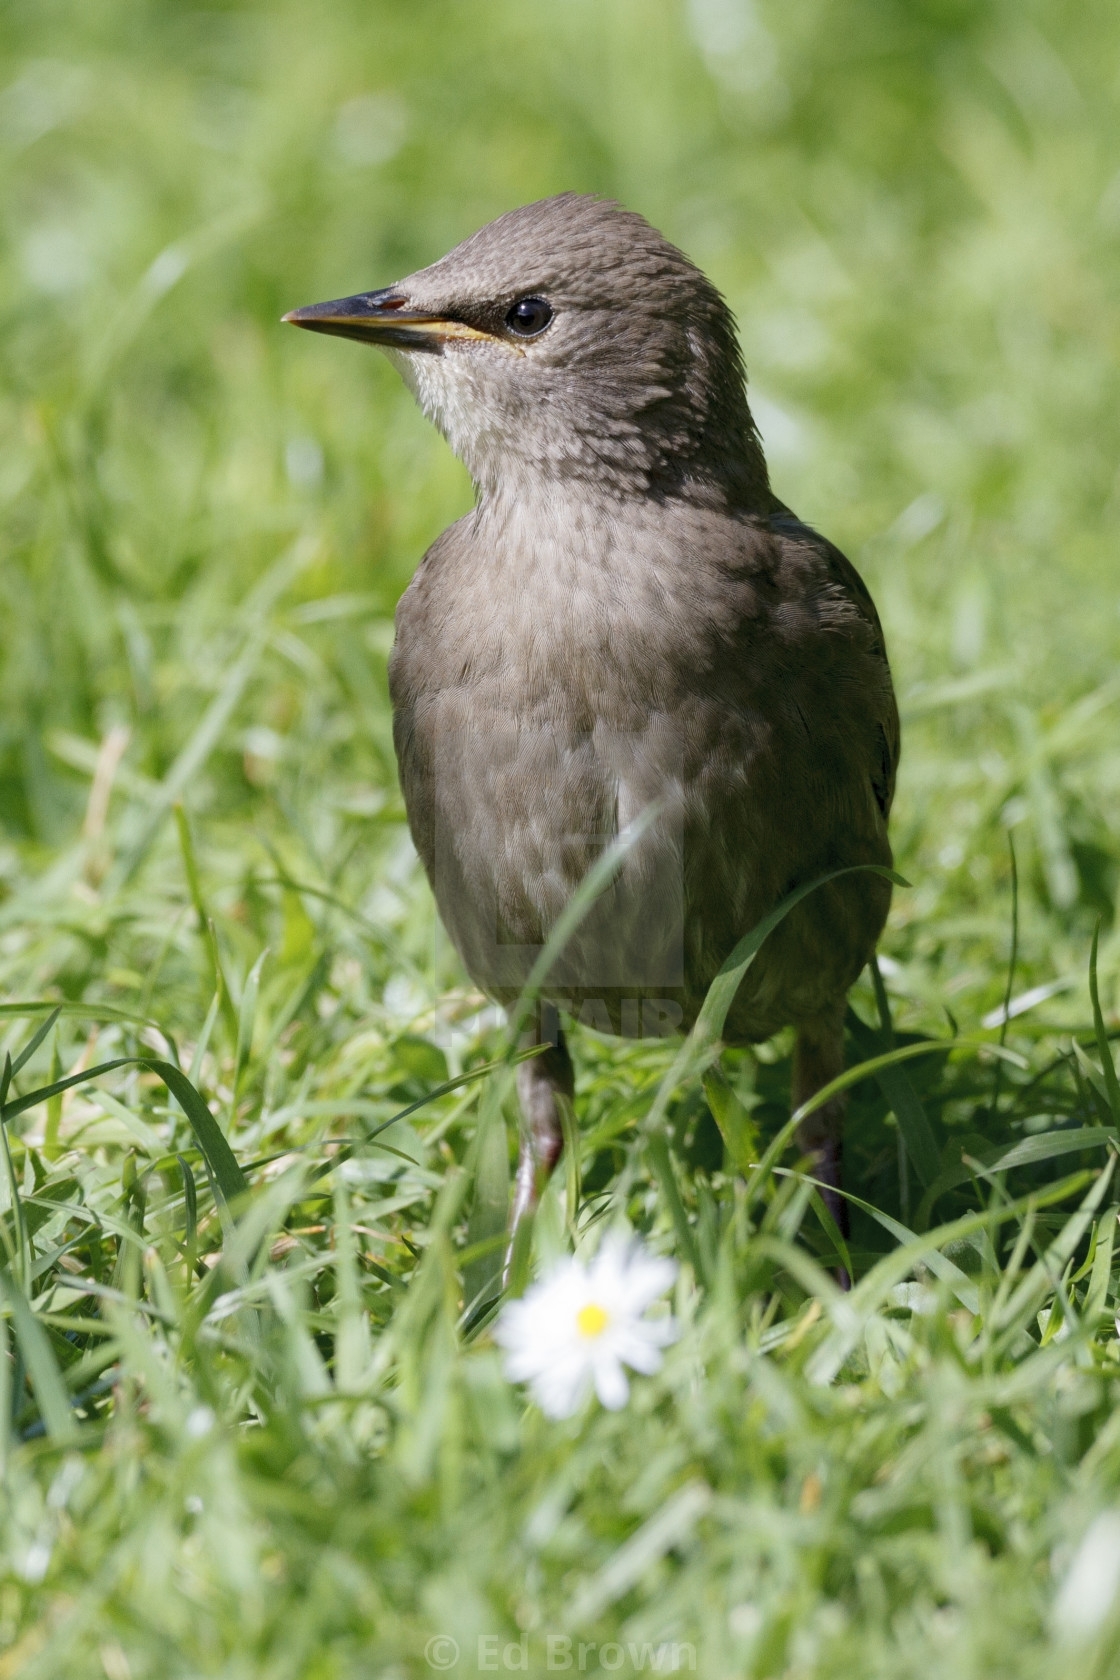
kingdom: Animalia
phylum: Chordata
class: Aves
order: Passeriformes
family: Sturnidae
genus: Sturnus
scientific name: Sturnus vulgaris
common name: Common starling
